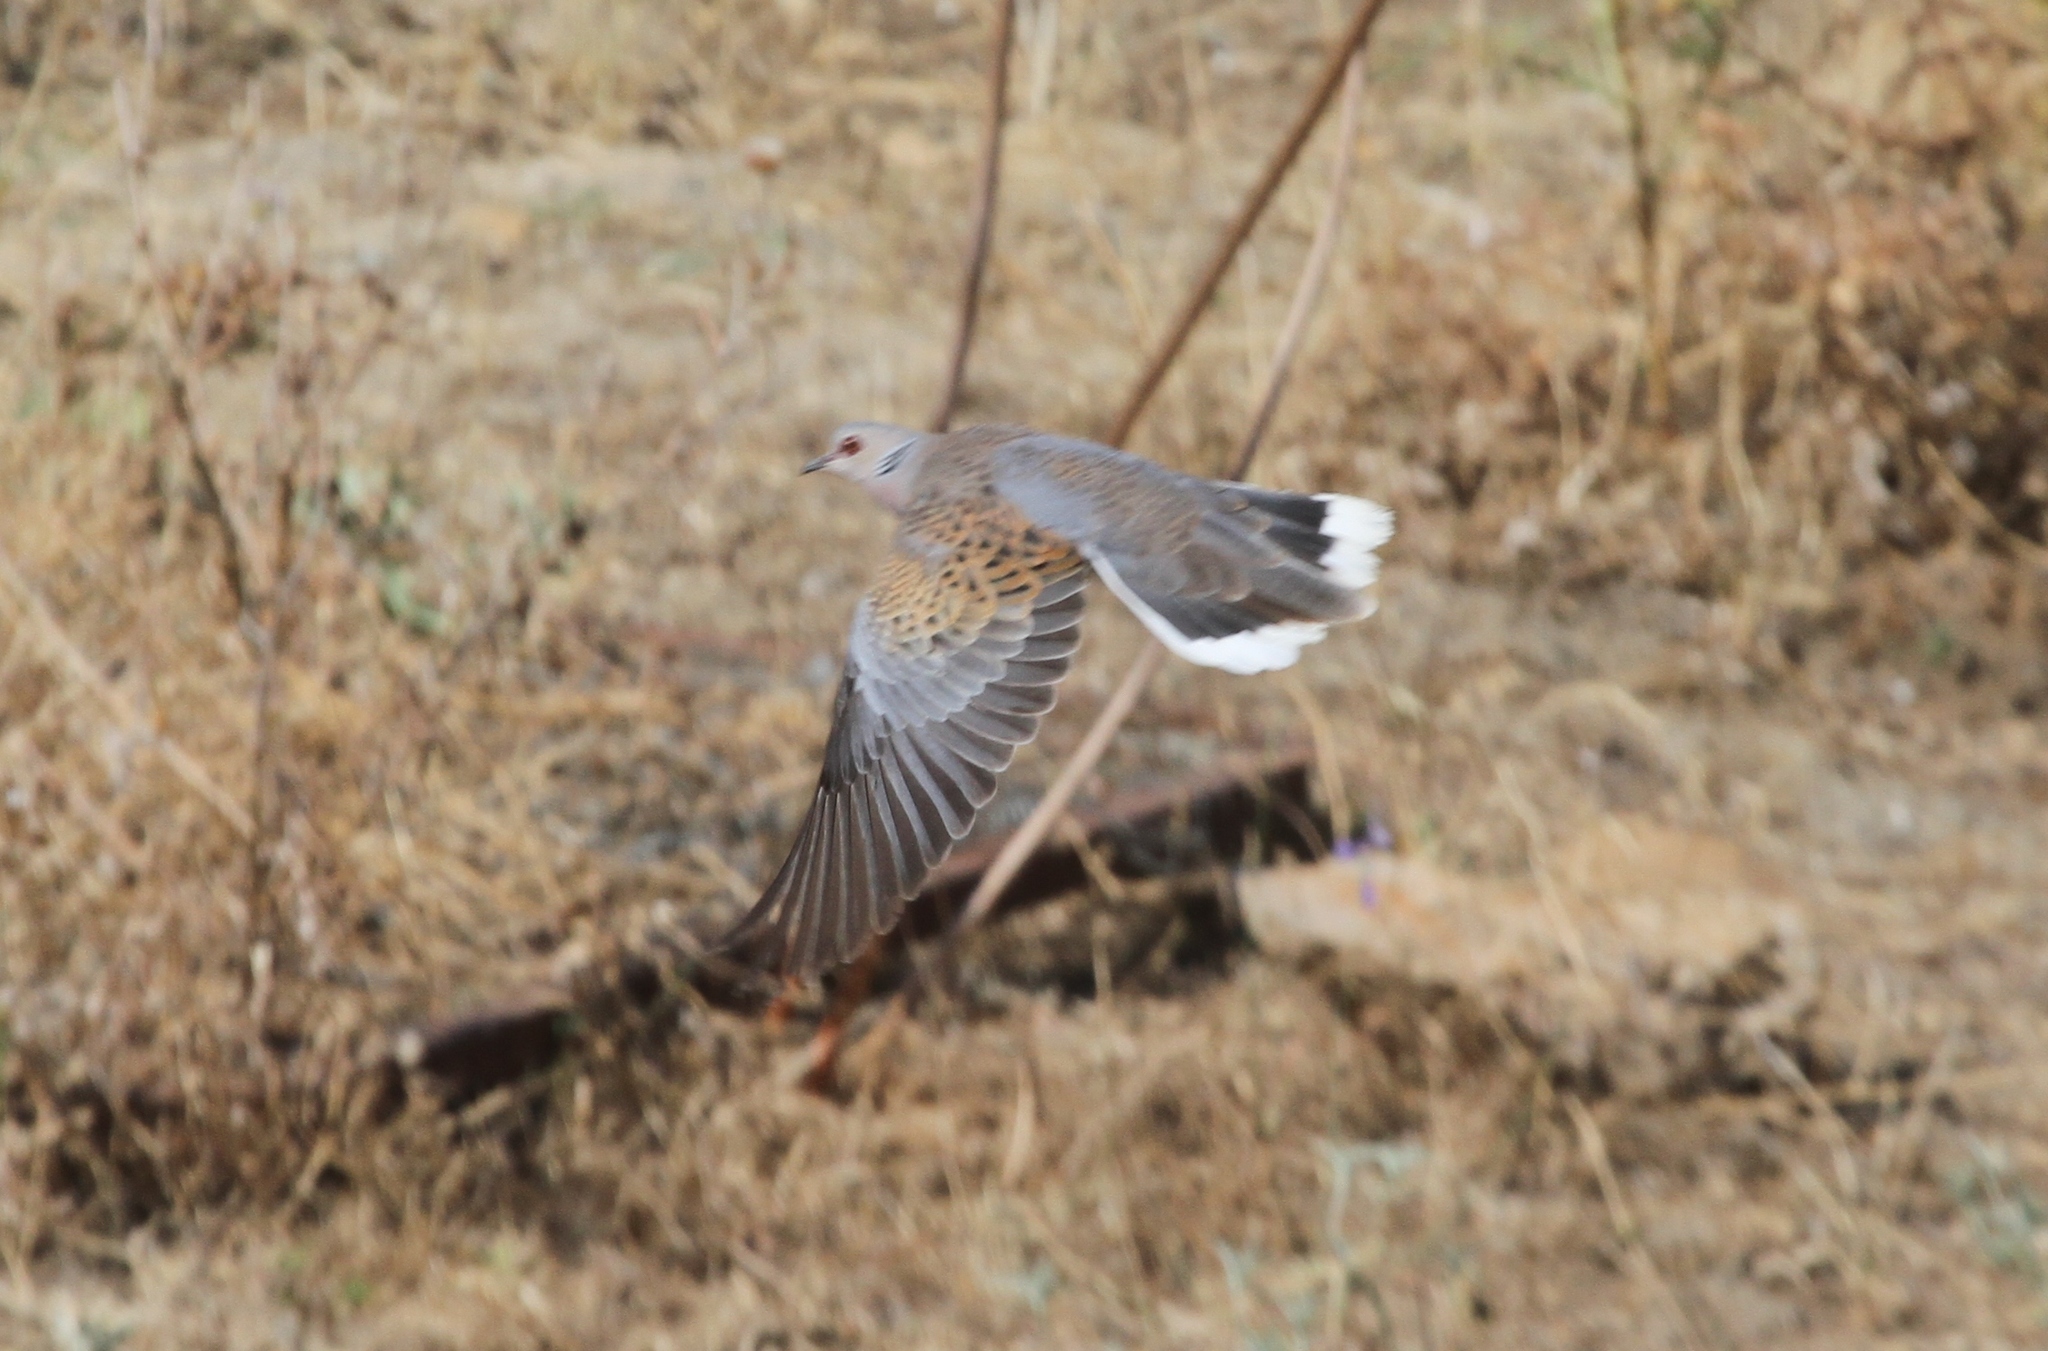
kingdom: Animalia
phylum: Chordata
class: Aves
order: Columbiformes
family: Columbidae
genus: Streptopelia
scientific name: Streptopelia turtur
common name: European turtle dove
